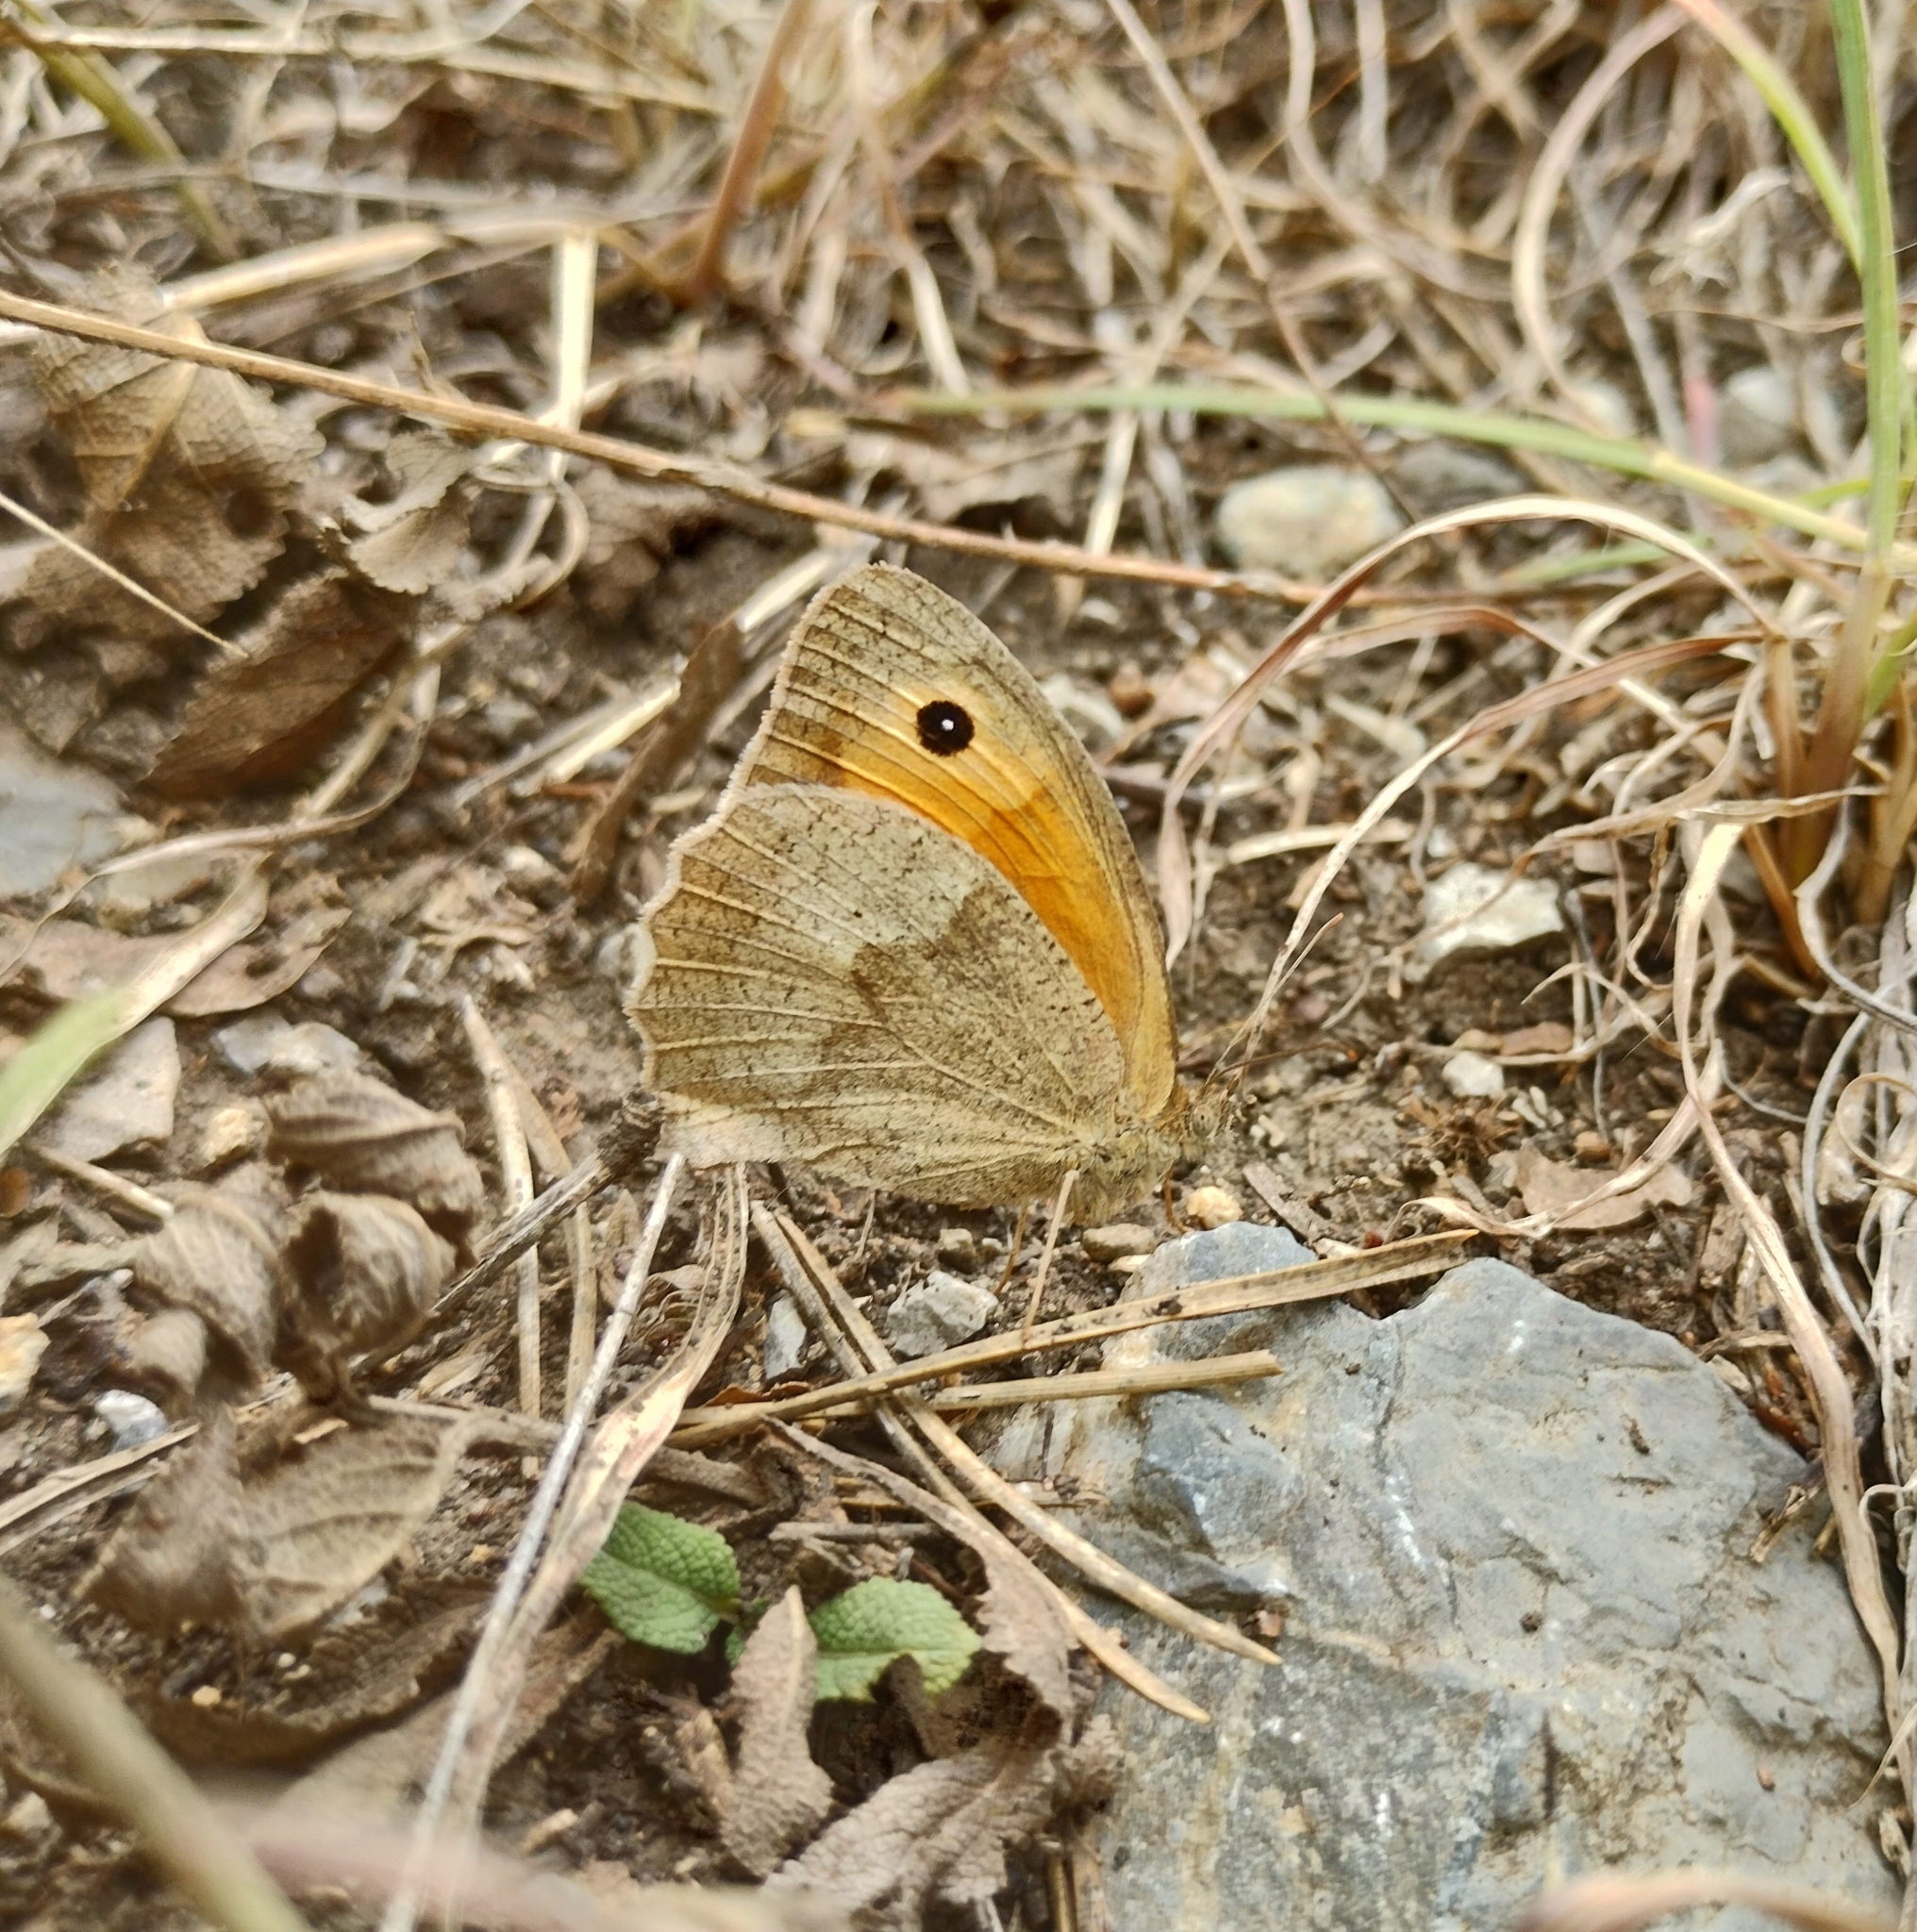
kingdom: Animalia
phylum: Arthropoda
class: Insecta
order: Lepidoptera
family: Nymphalidae
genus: Maniola
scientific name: Maniola jurtina
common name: Meadow brown
